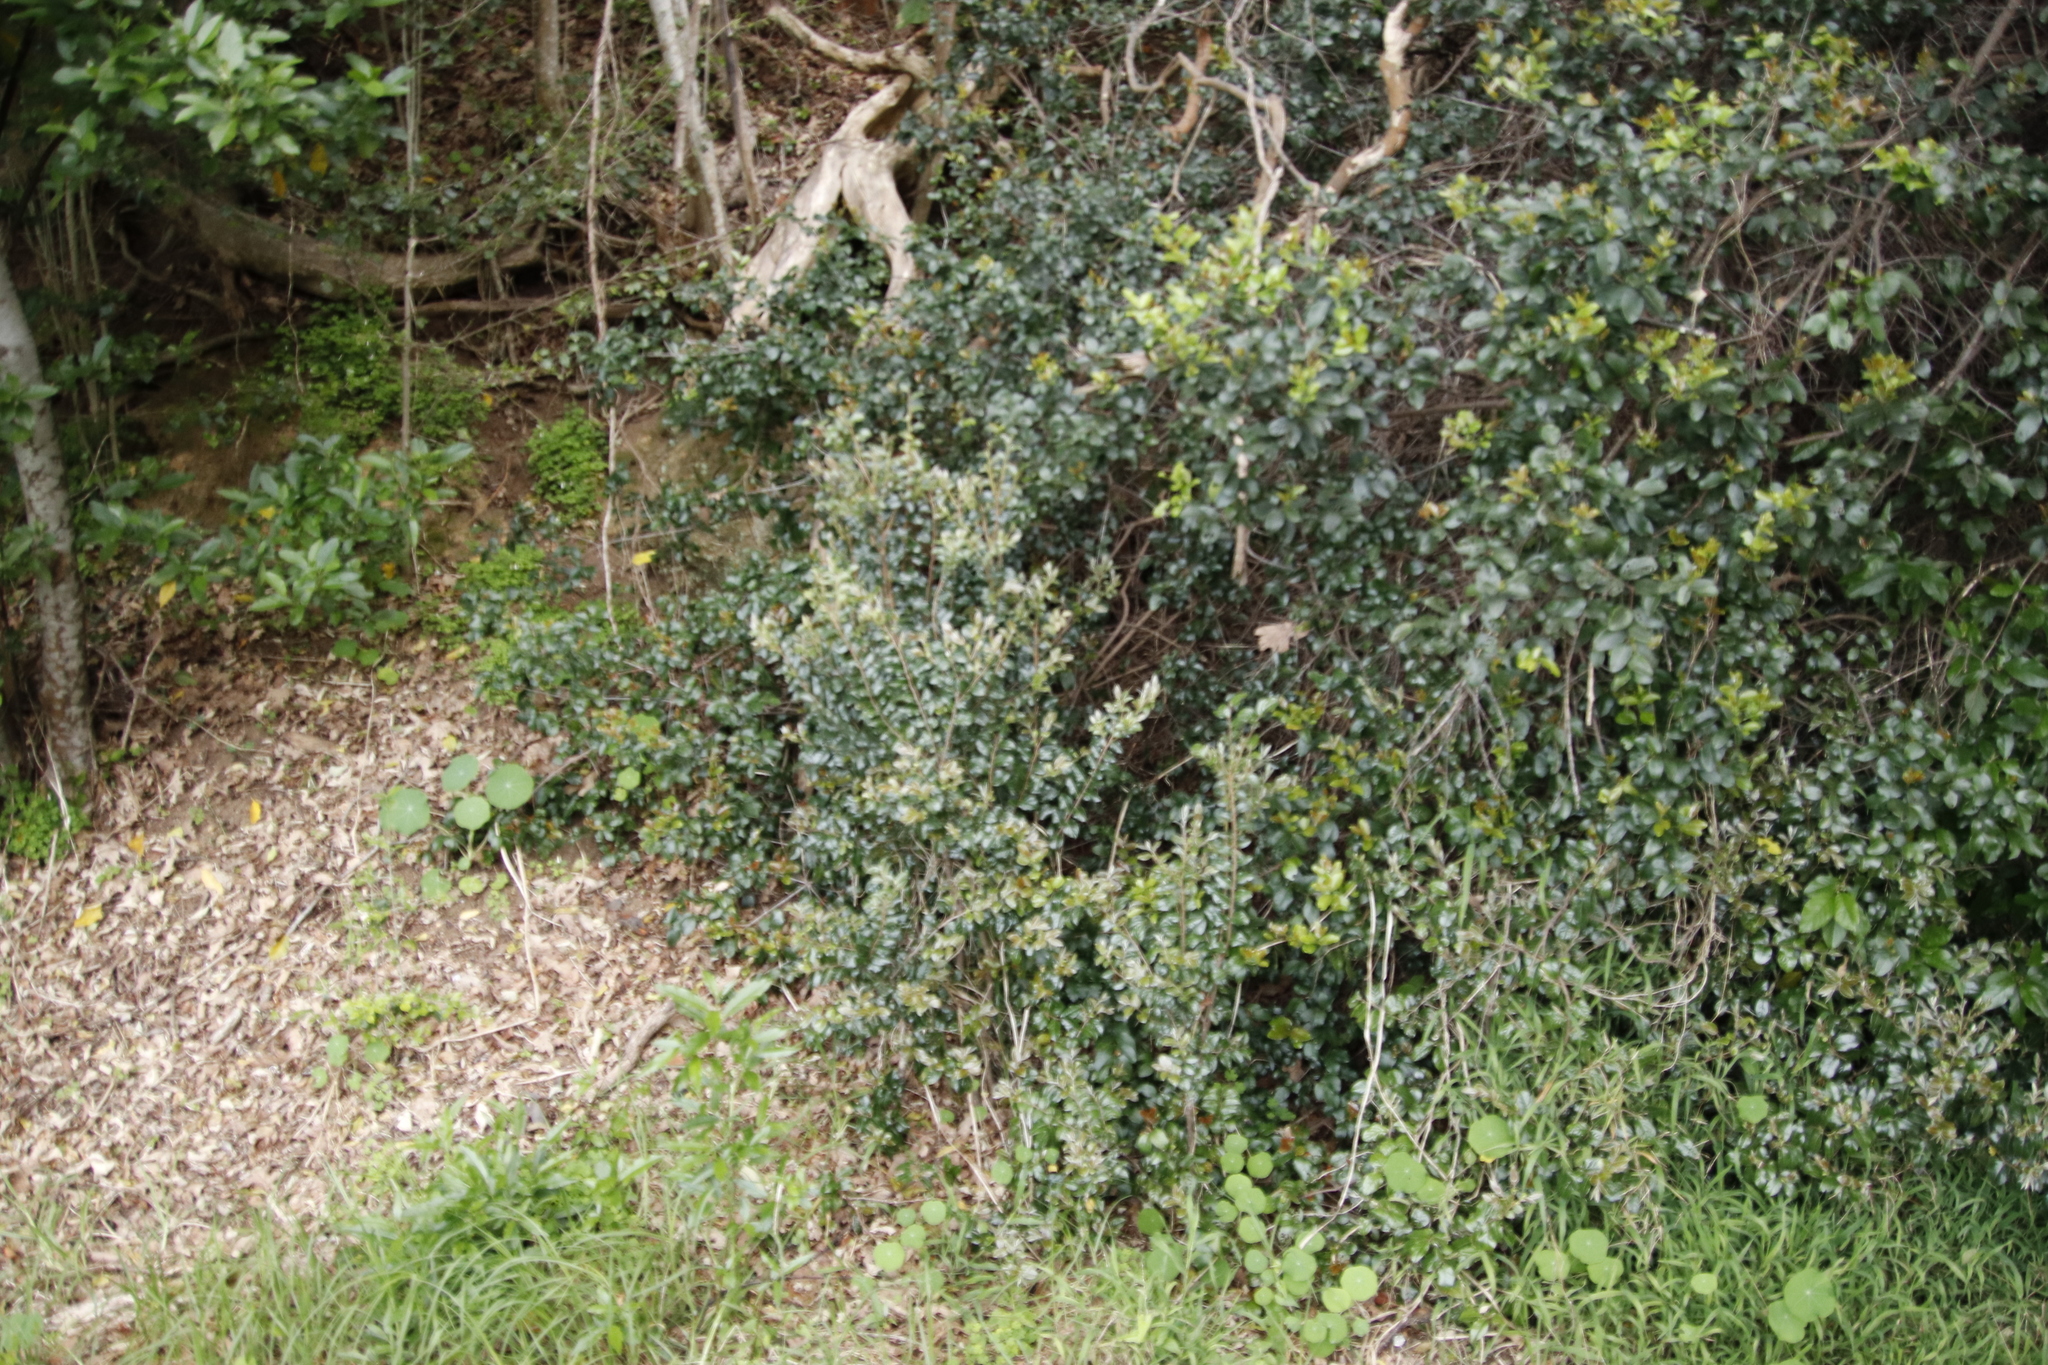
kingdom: Plantae
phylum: Tracheophyta
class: Magnoliopsida
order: Ericales
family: Ebenaceae
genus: Diospyros
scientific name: Diospyros whyteana
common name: Bladder-nut
